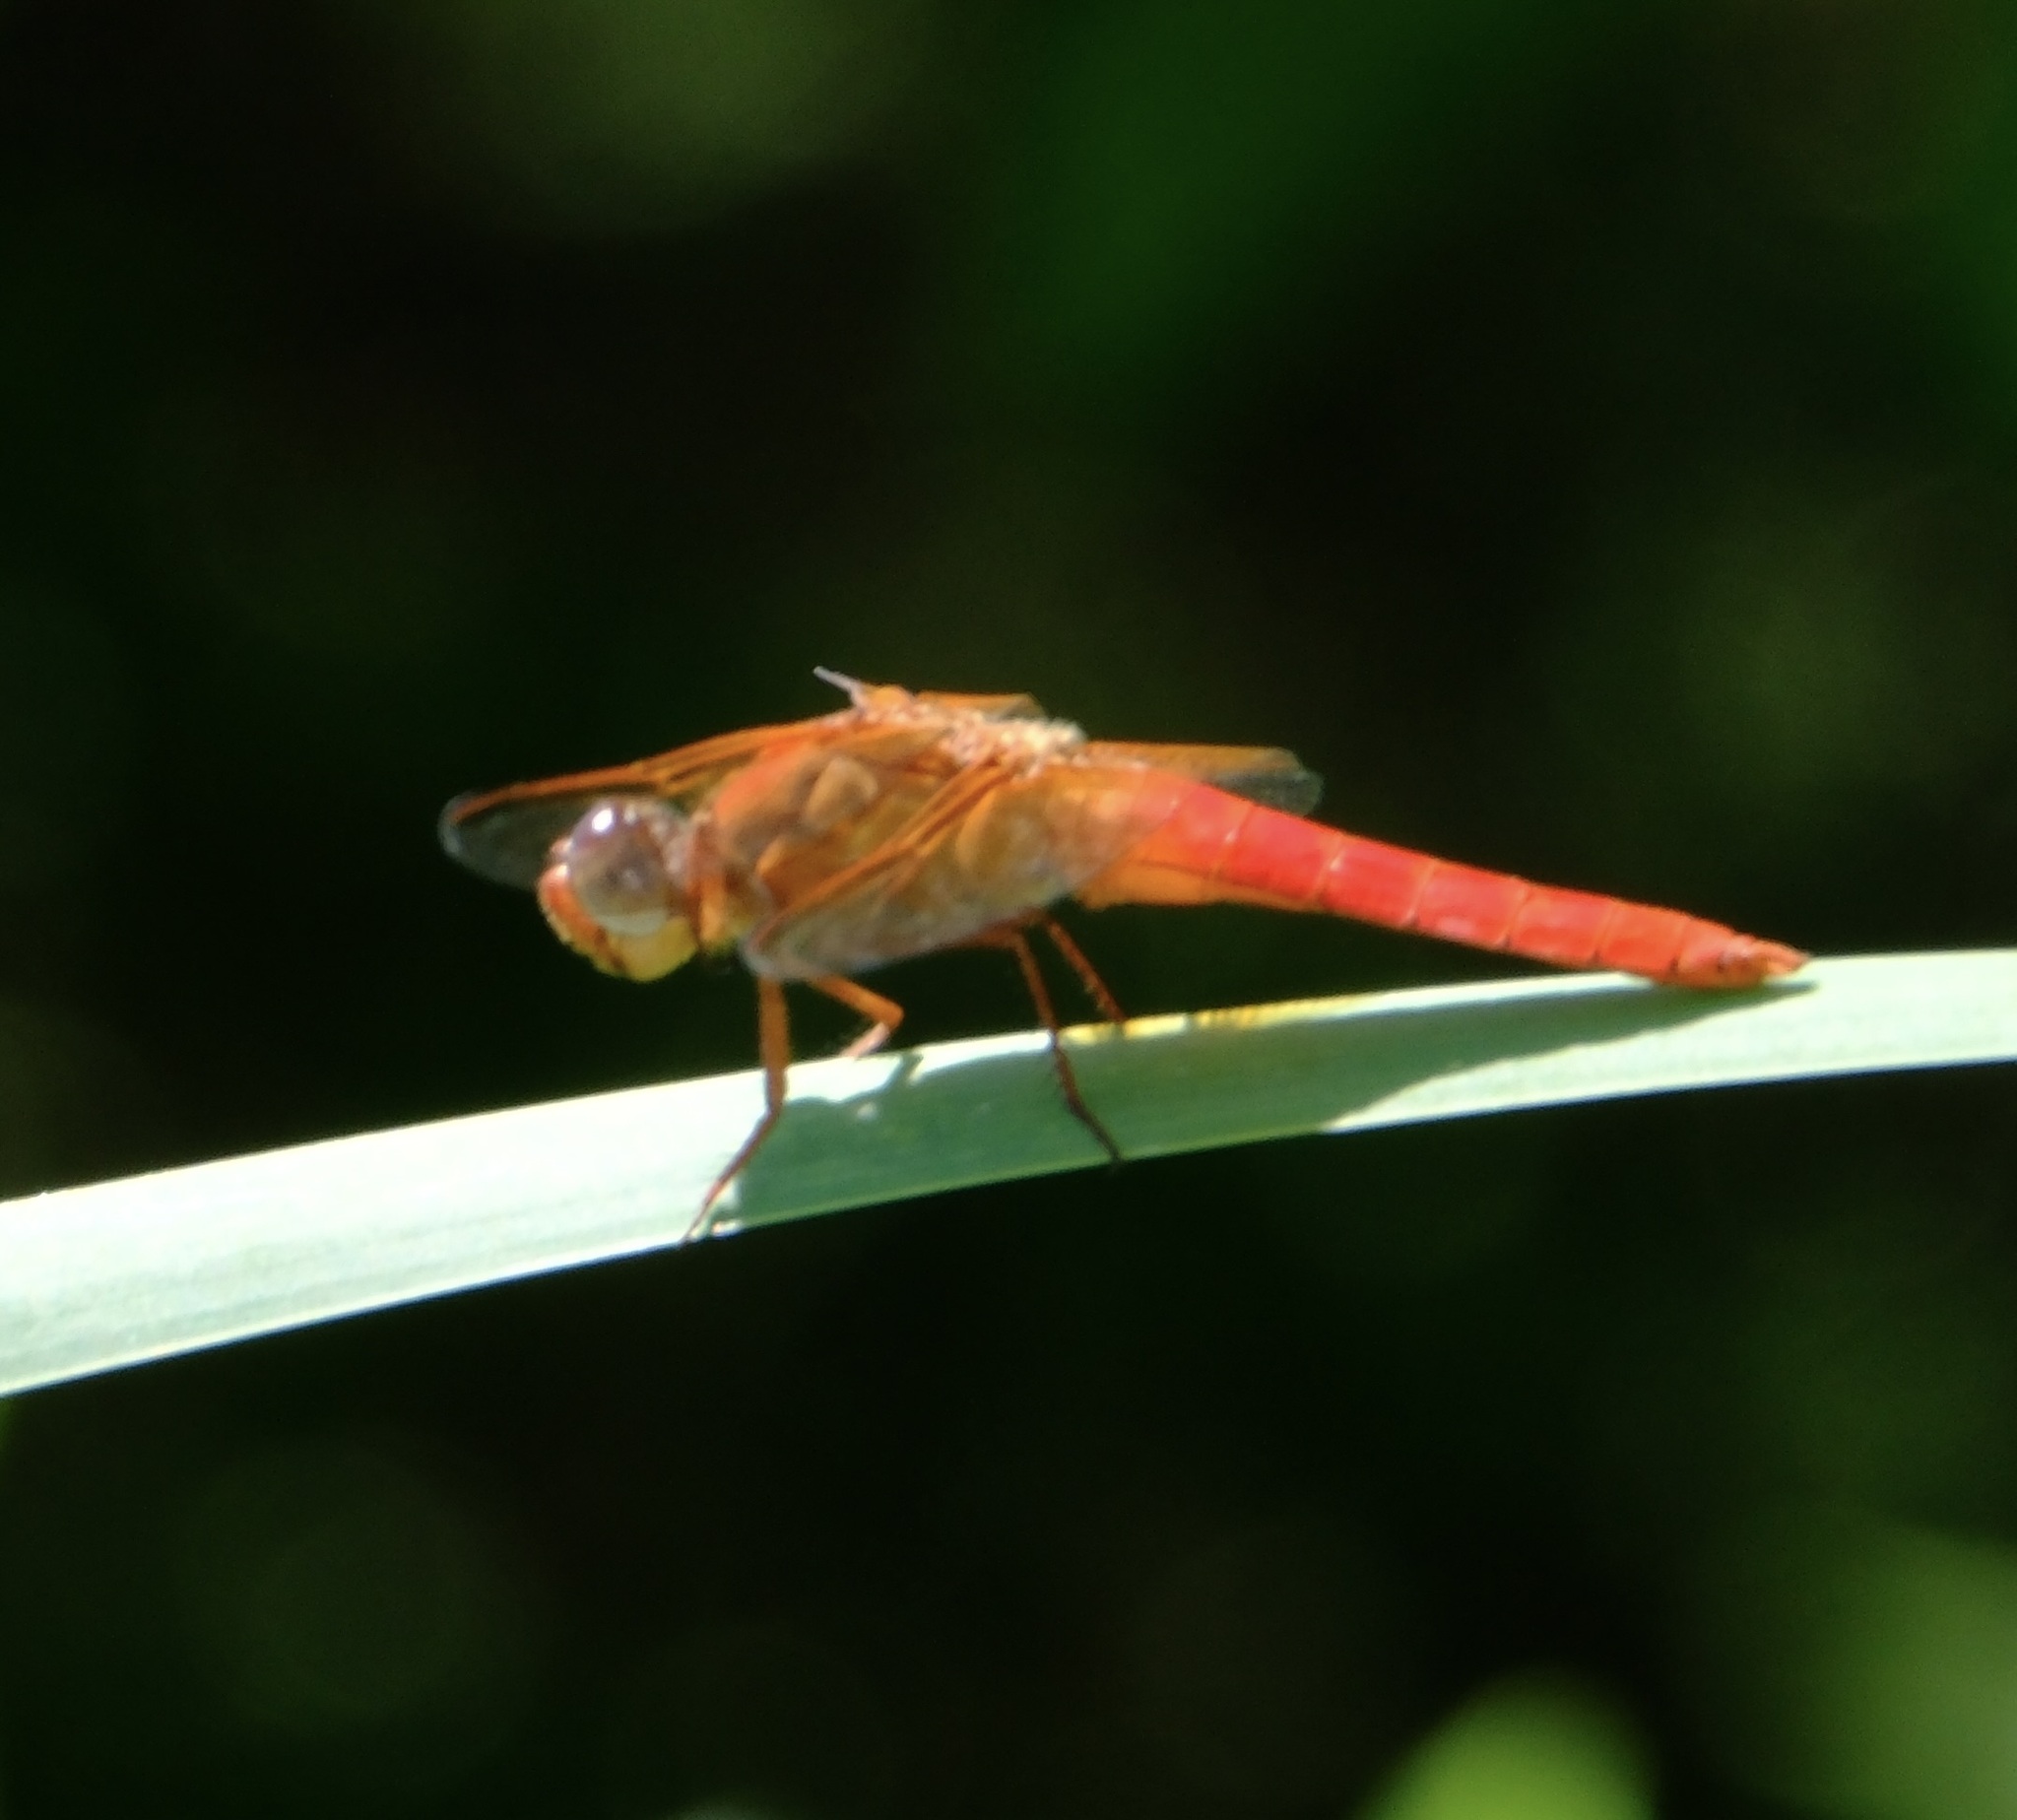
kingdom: Animalia
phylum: Arthropoda
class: Insecta
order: Odonata
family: Libellulidae
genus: Libellula
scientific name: Libellula croceipennis
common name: Neon skimmer
